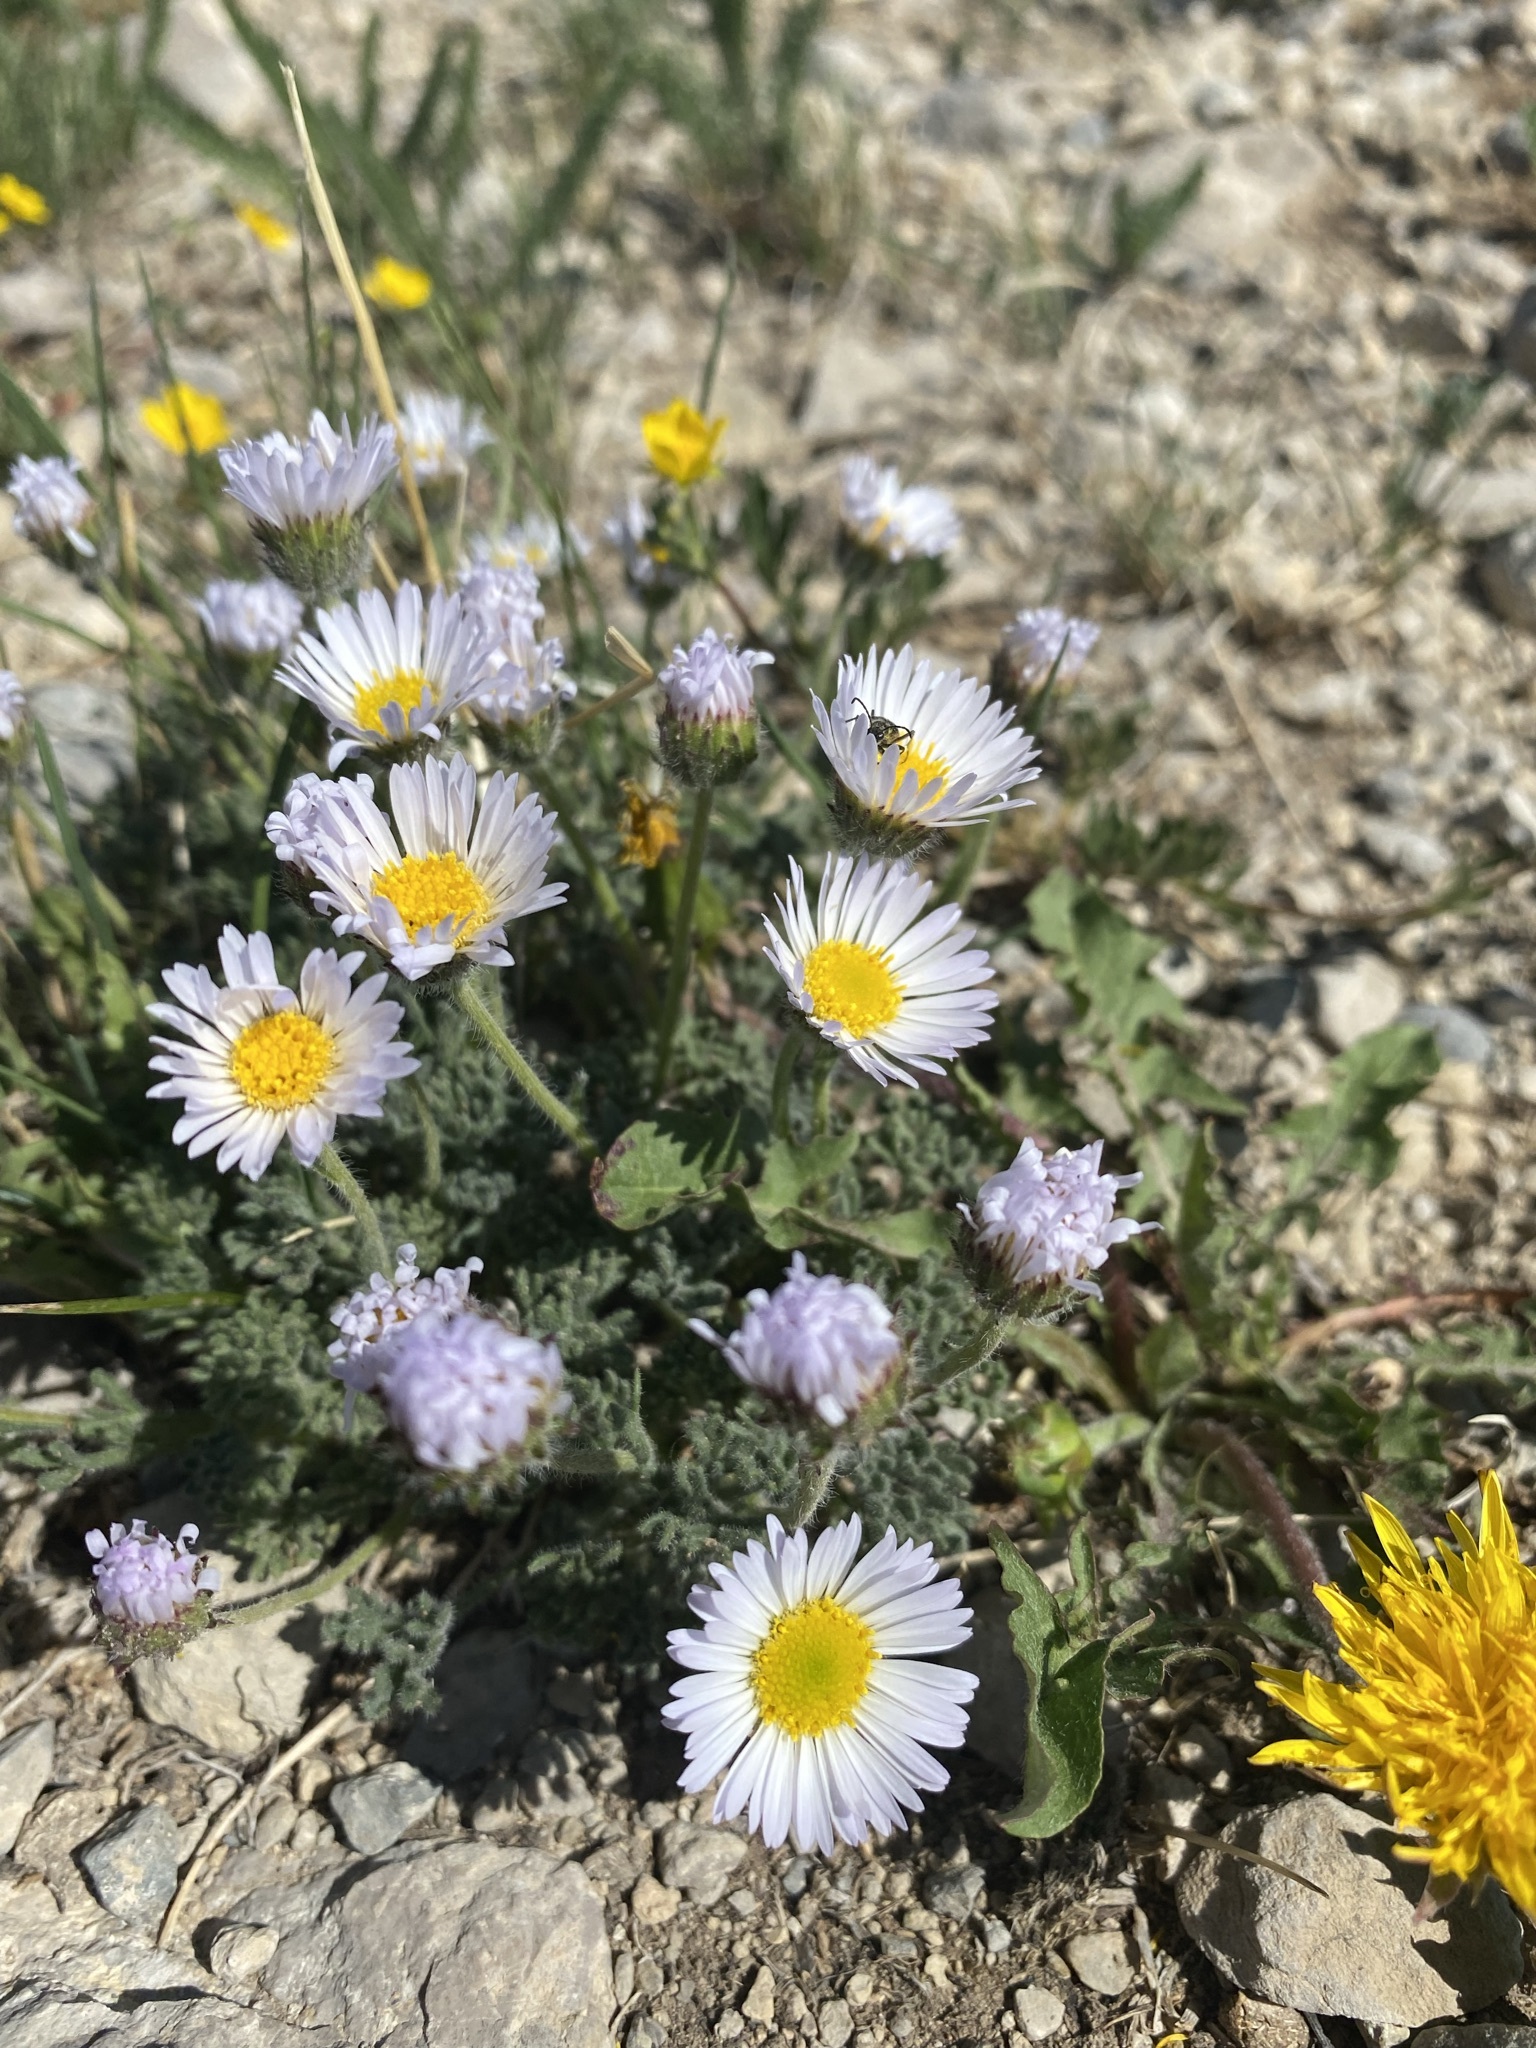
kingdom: Plantae
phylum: Tracheophyta
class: Magnoliopsida
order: Asterales
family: Asteraceae
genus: Erigeron
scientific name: Erigeron compositus
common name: Dwarf mountain fleabane
